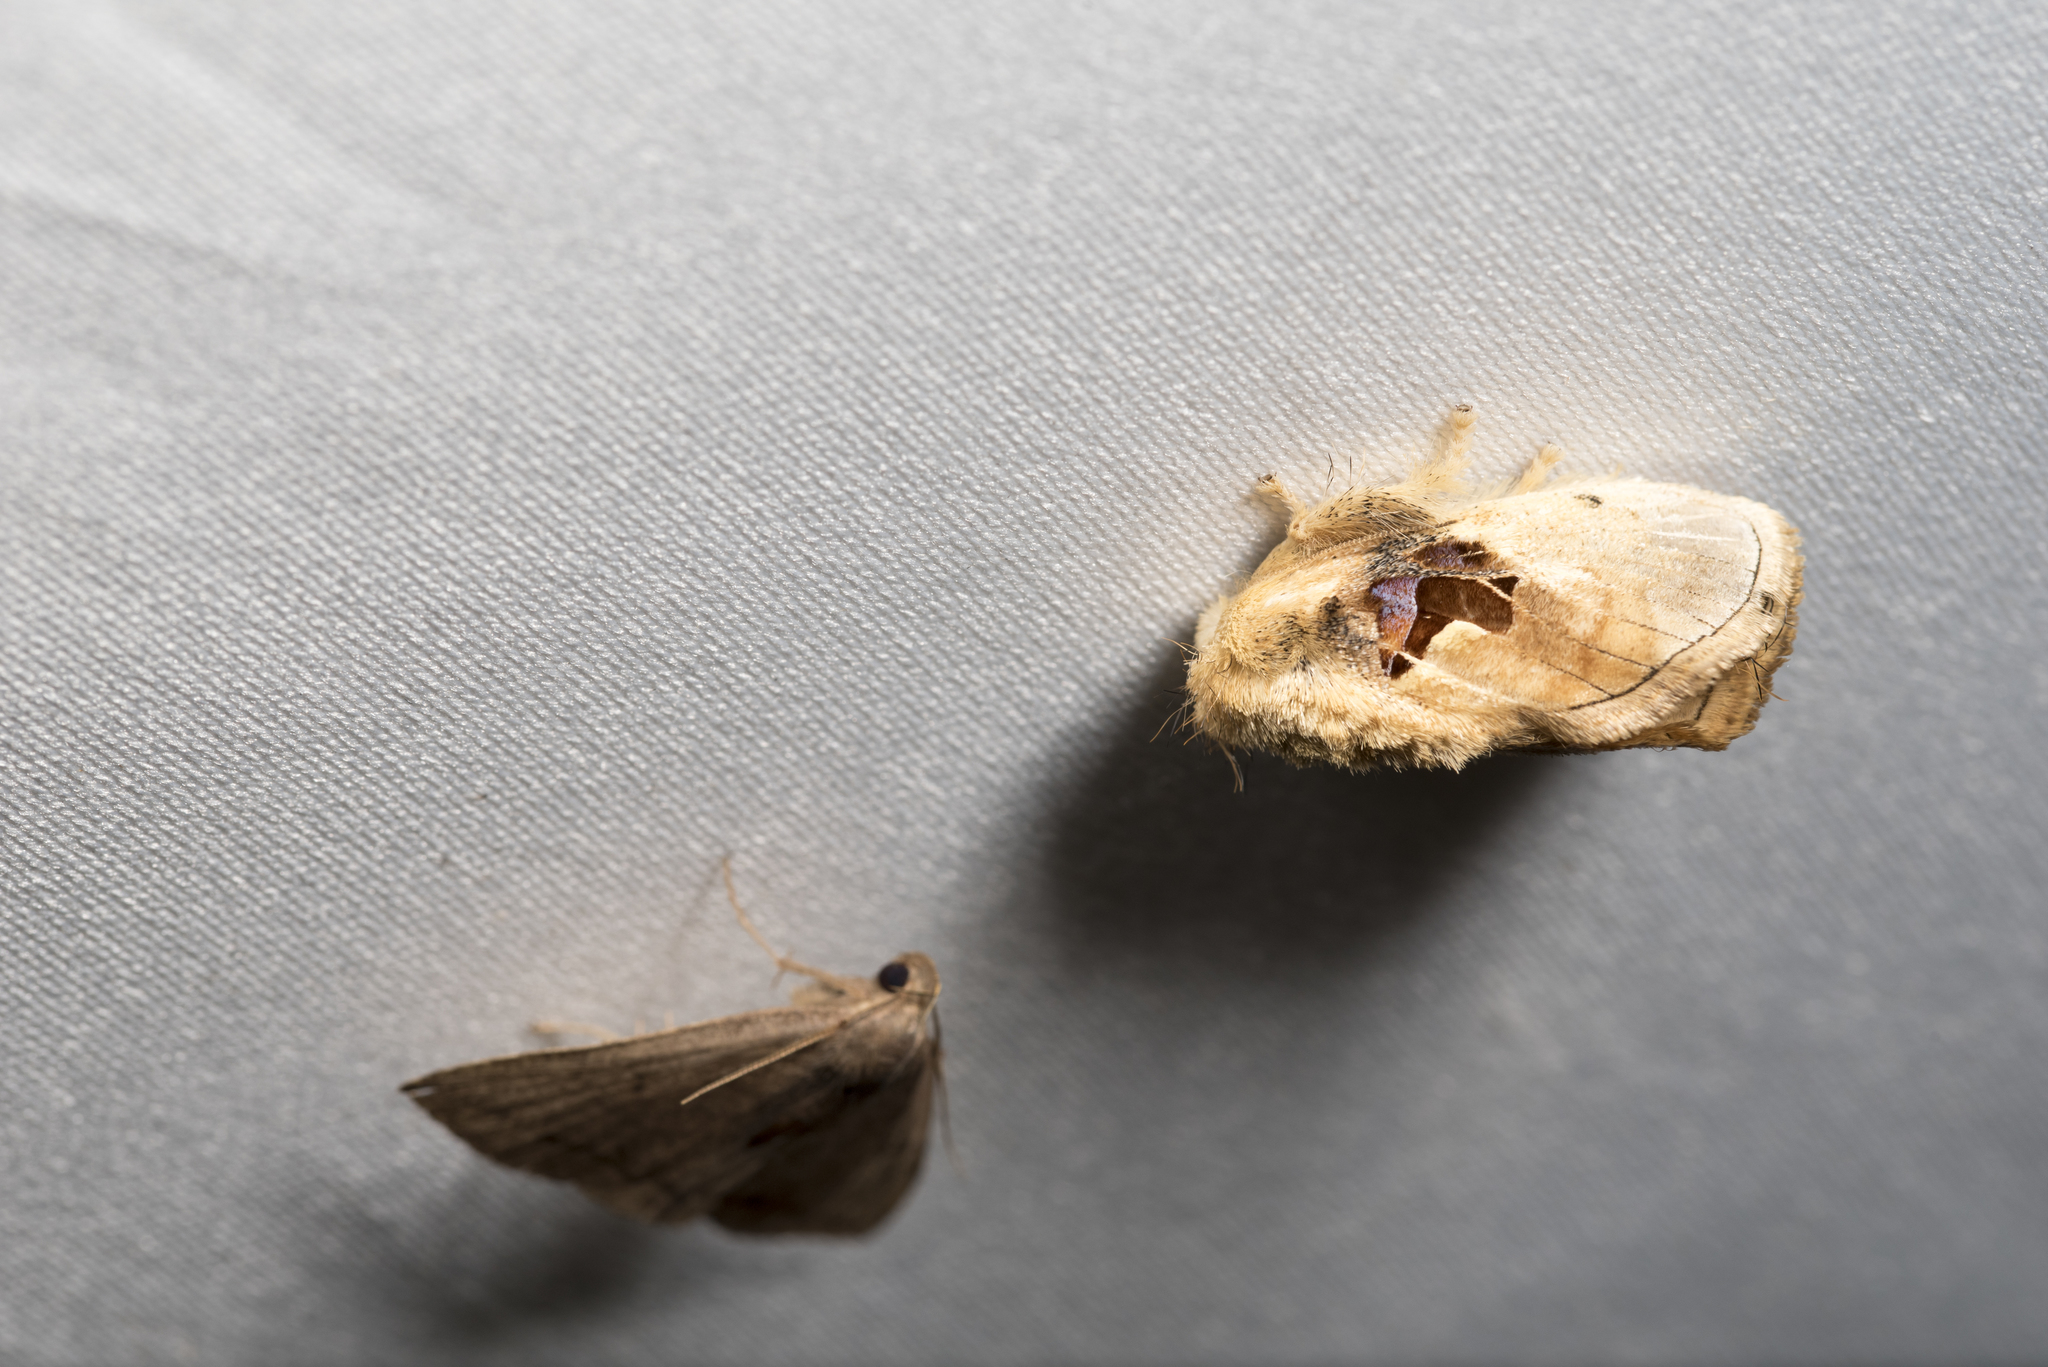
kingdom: Animalia
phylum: Arthropoda
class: Insecta
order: Lepidoptera
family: Limacodidae
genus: Chalcoscelides
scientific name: Chalcoscelides castaneipars
